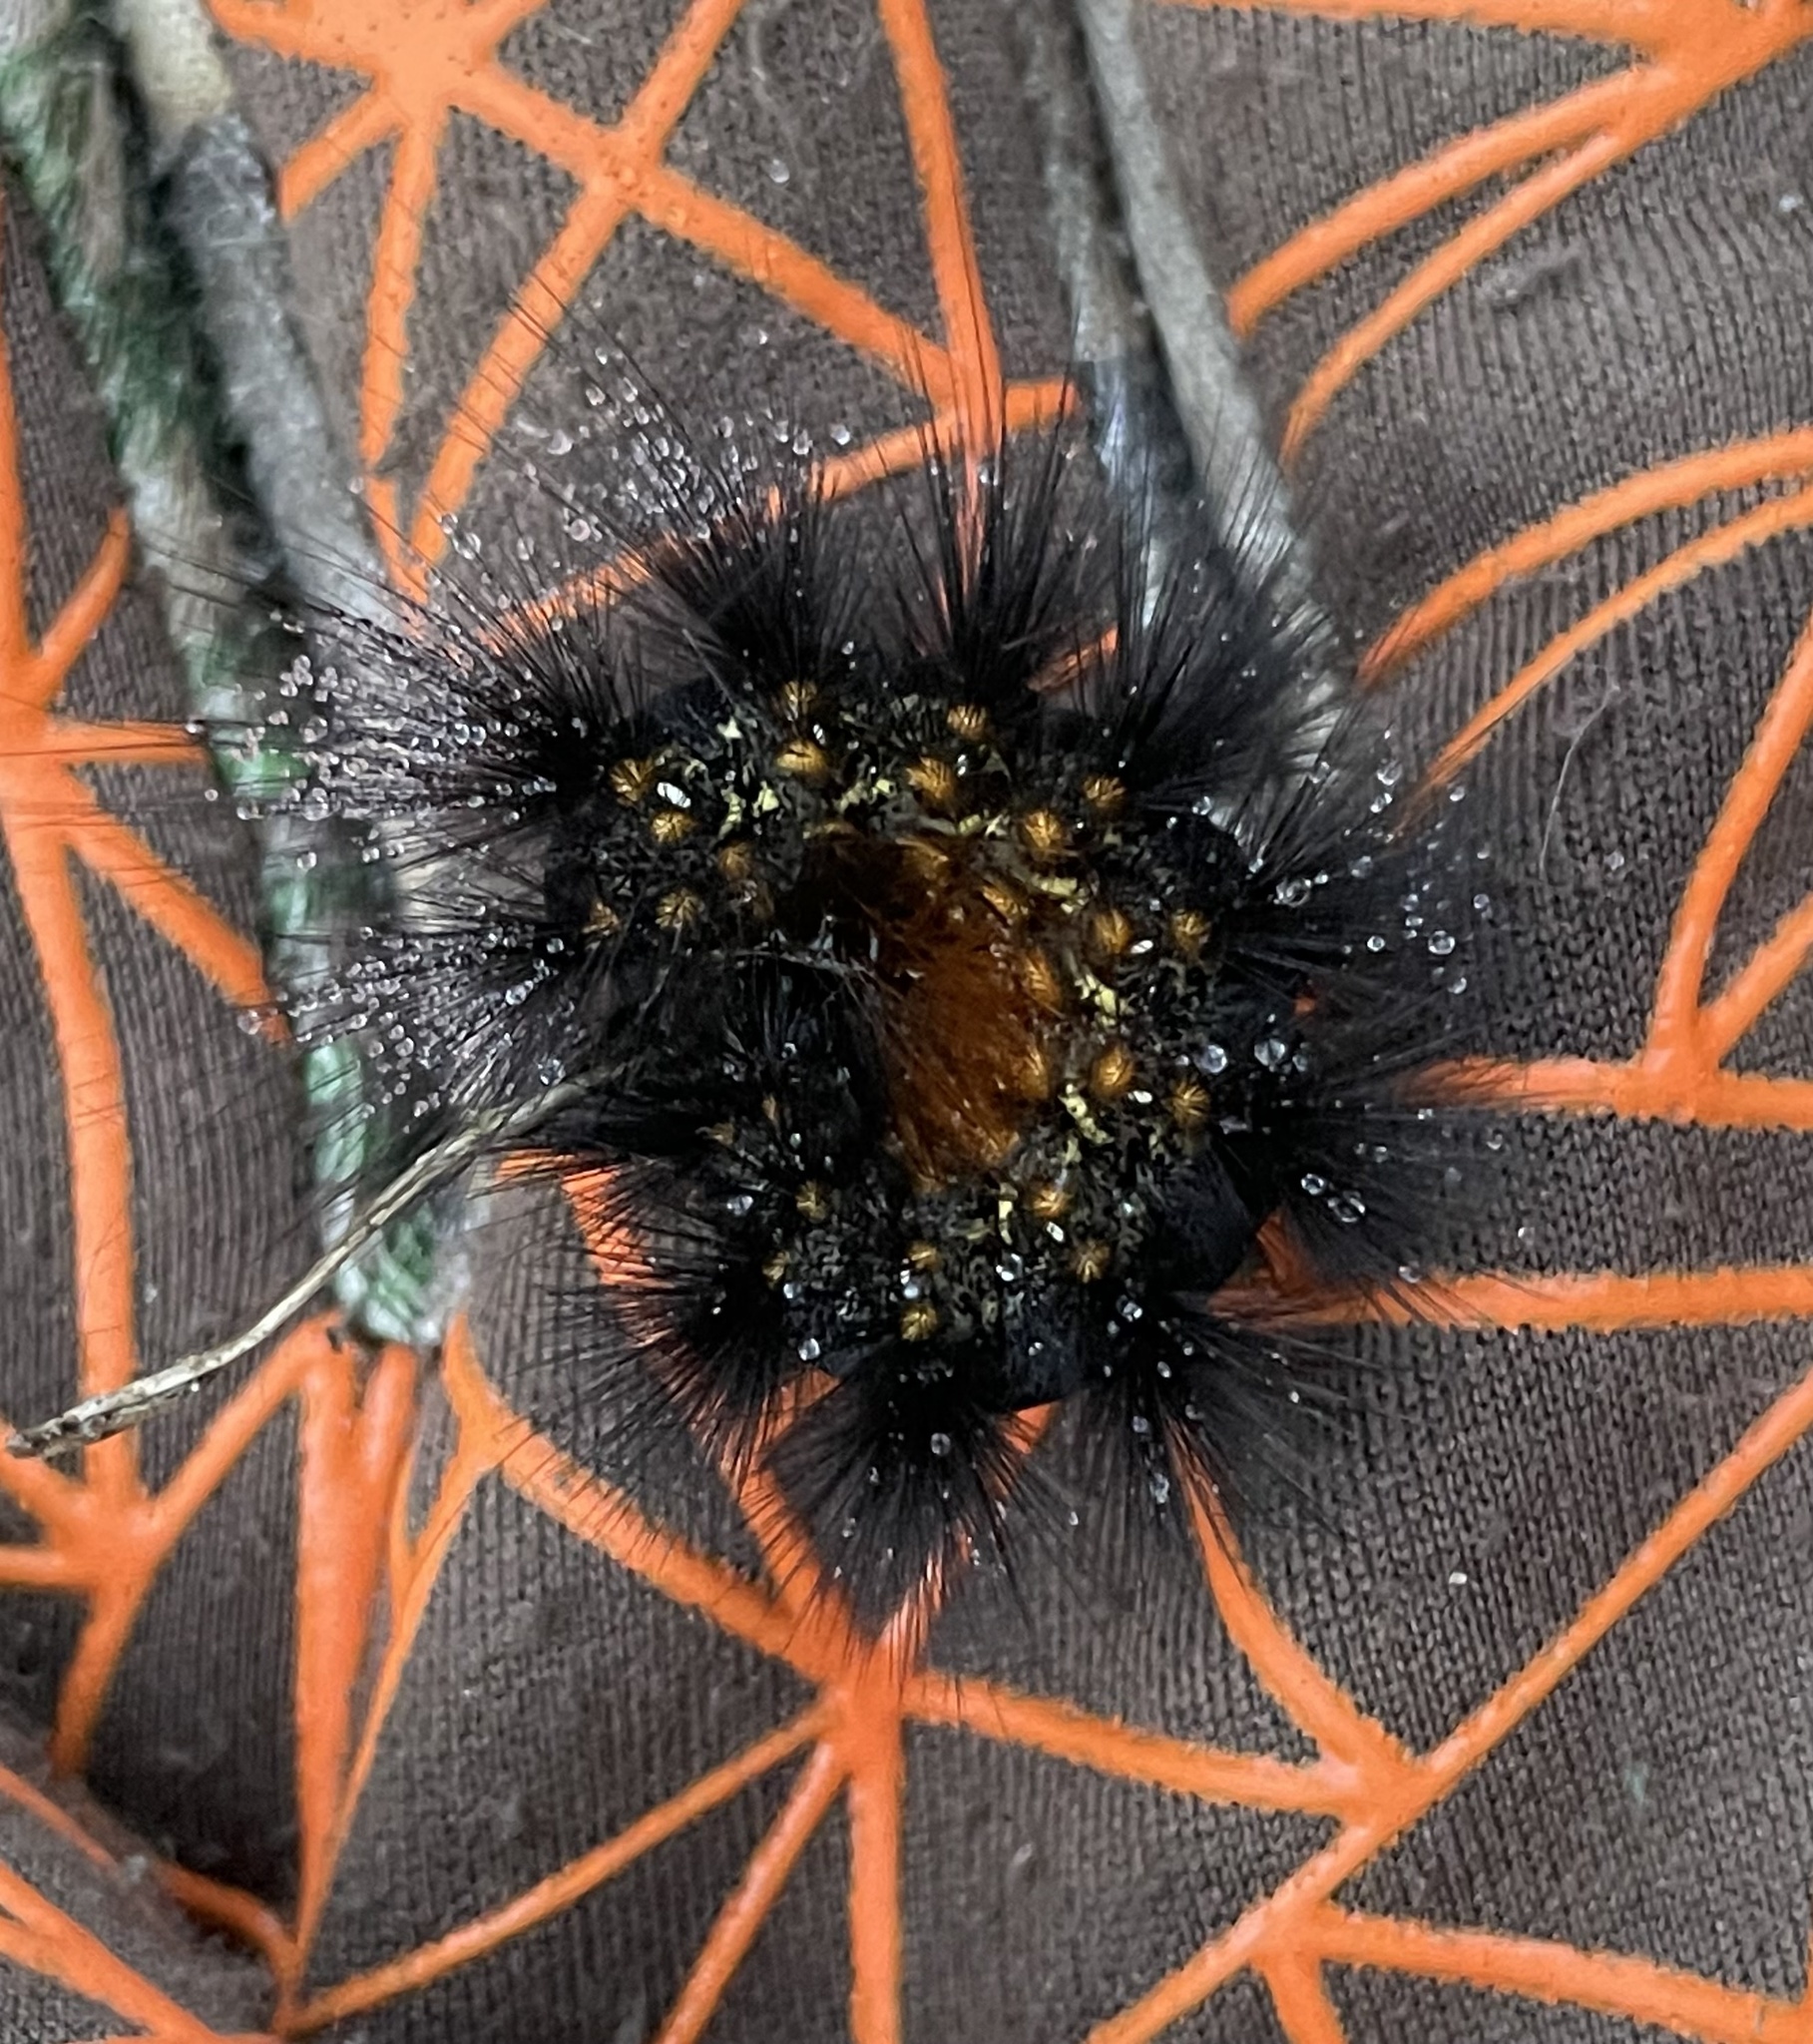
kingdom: Animalia
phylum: Arthropoda
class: Insecta
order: Lepidoptera
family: Erebidae
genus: Estigmene
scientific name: Estigmene acrea
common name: Salt marsh moth
